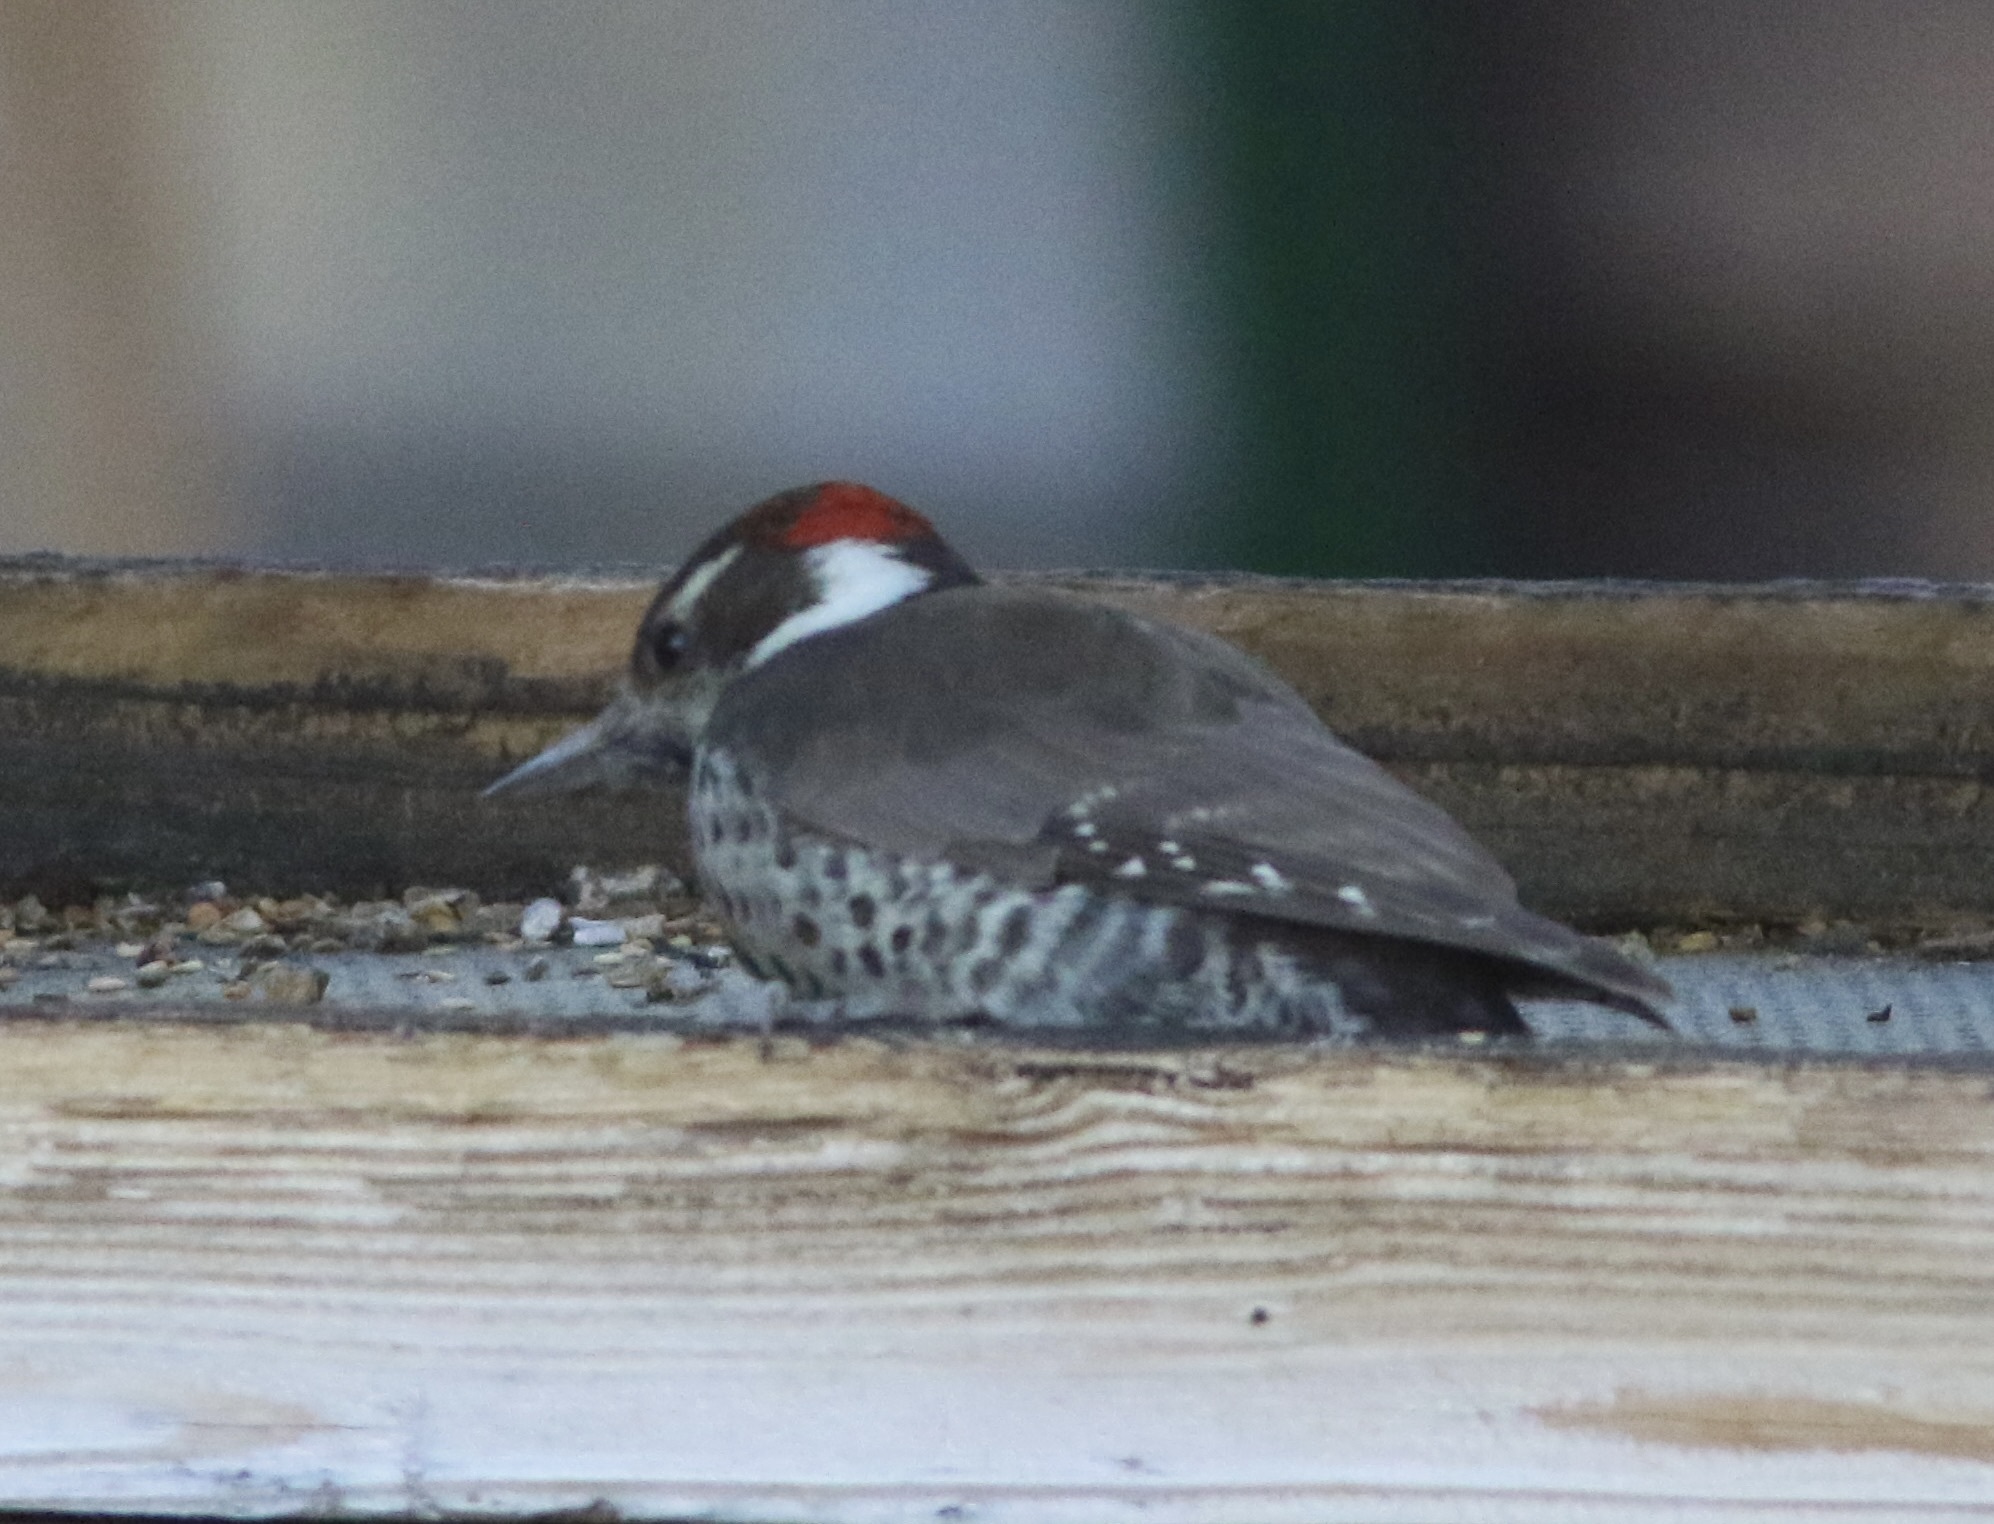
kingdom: Animalia
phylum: Chordata
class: Aves
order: Piciformes
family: Picidae
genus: Leuconotopicus
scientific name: Leuconotopicus arizonae
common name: Arizona woodpecker
